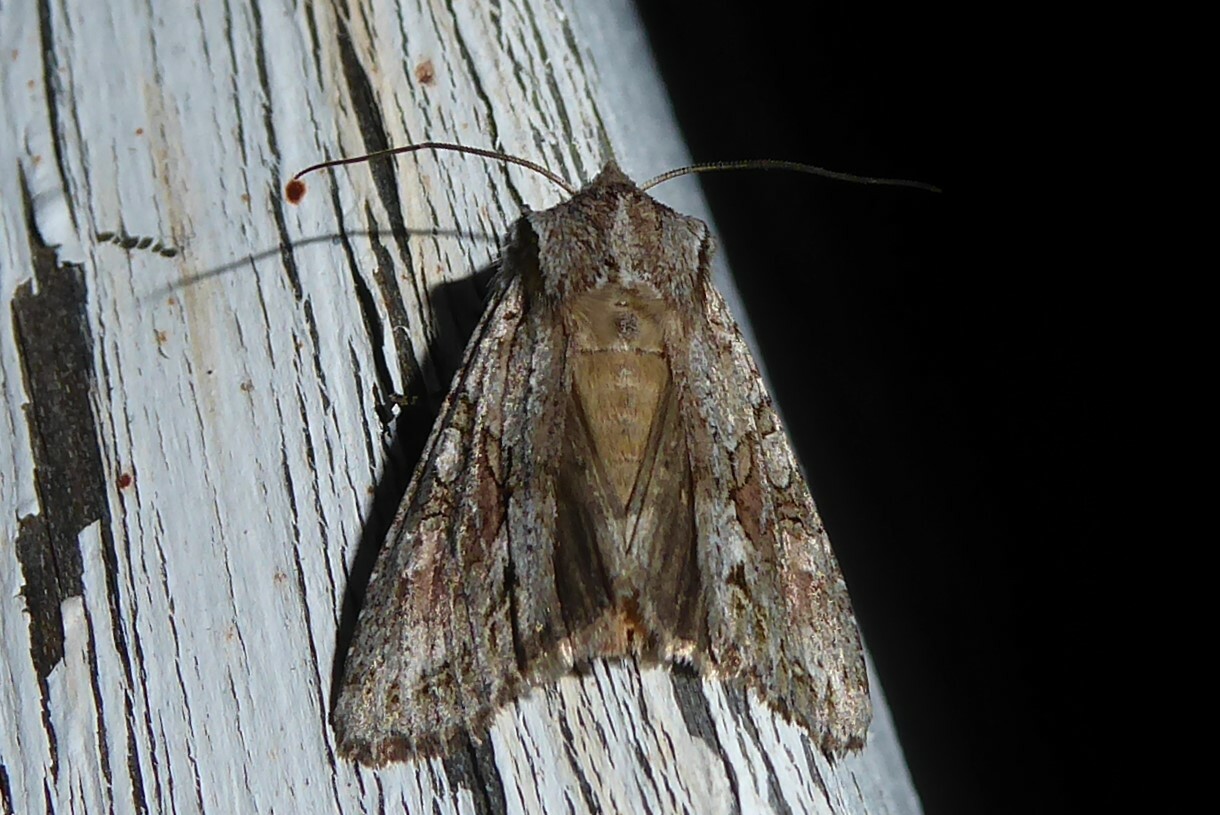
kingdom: Animalia
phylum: Arthropoda
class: Insecta
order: Lepidoptera
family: Noctuidae
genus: Ichneutica
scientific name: Ichneutica mutans
